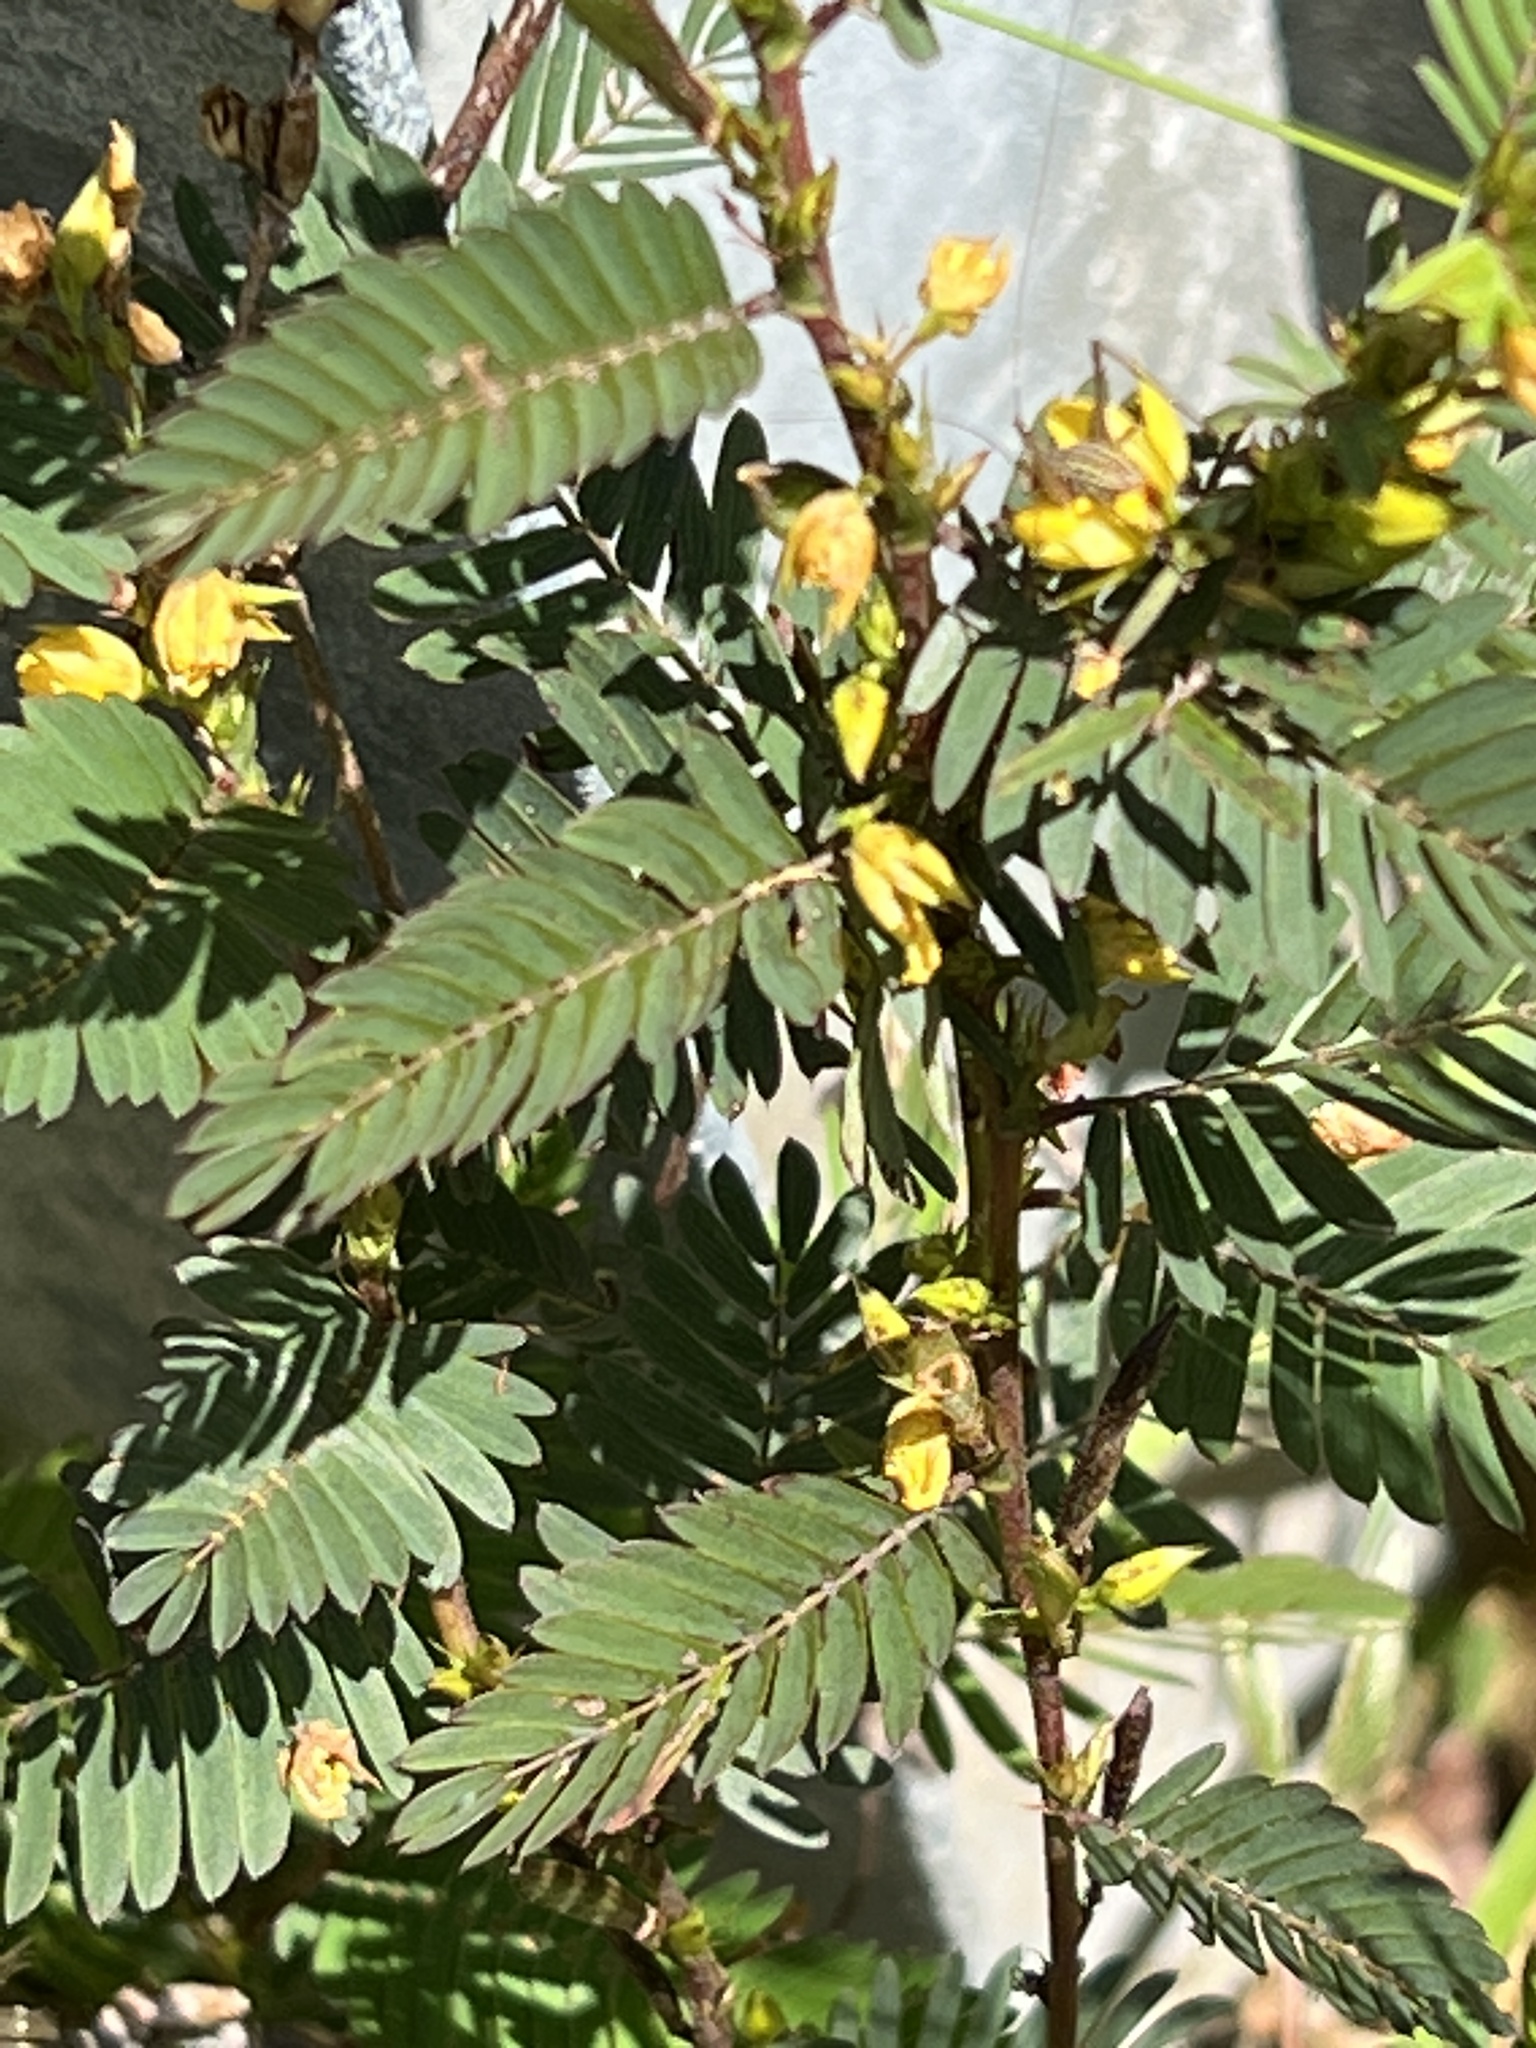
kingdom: Plantae
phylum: Tracheophyta
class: Magnoliopsida
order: Fabales
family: Fabaceae
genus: Chamaecrista
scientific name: Chamaecrista nictitans
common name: Sensitive cassia
